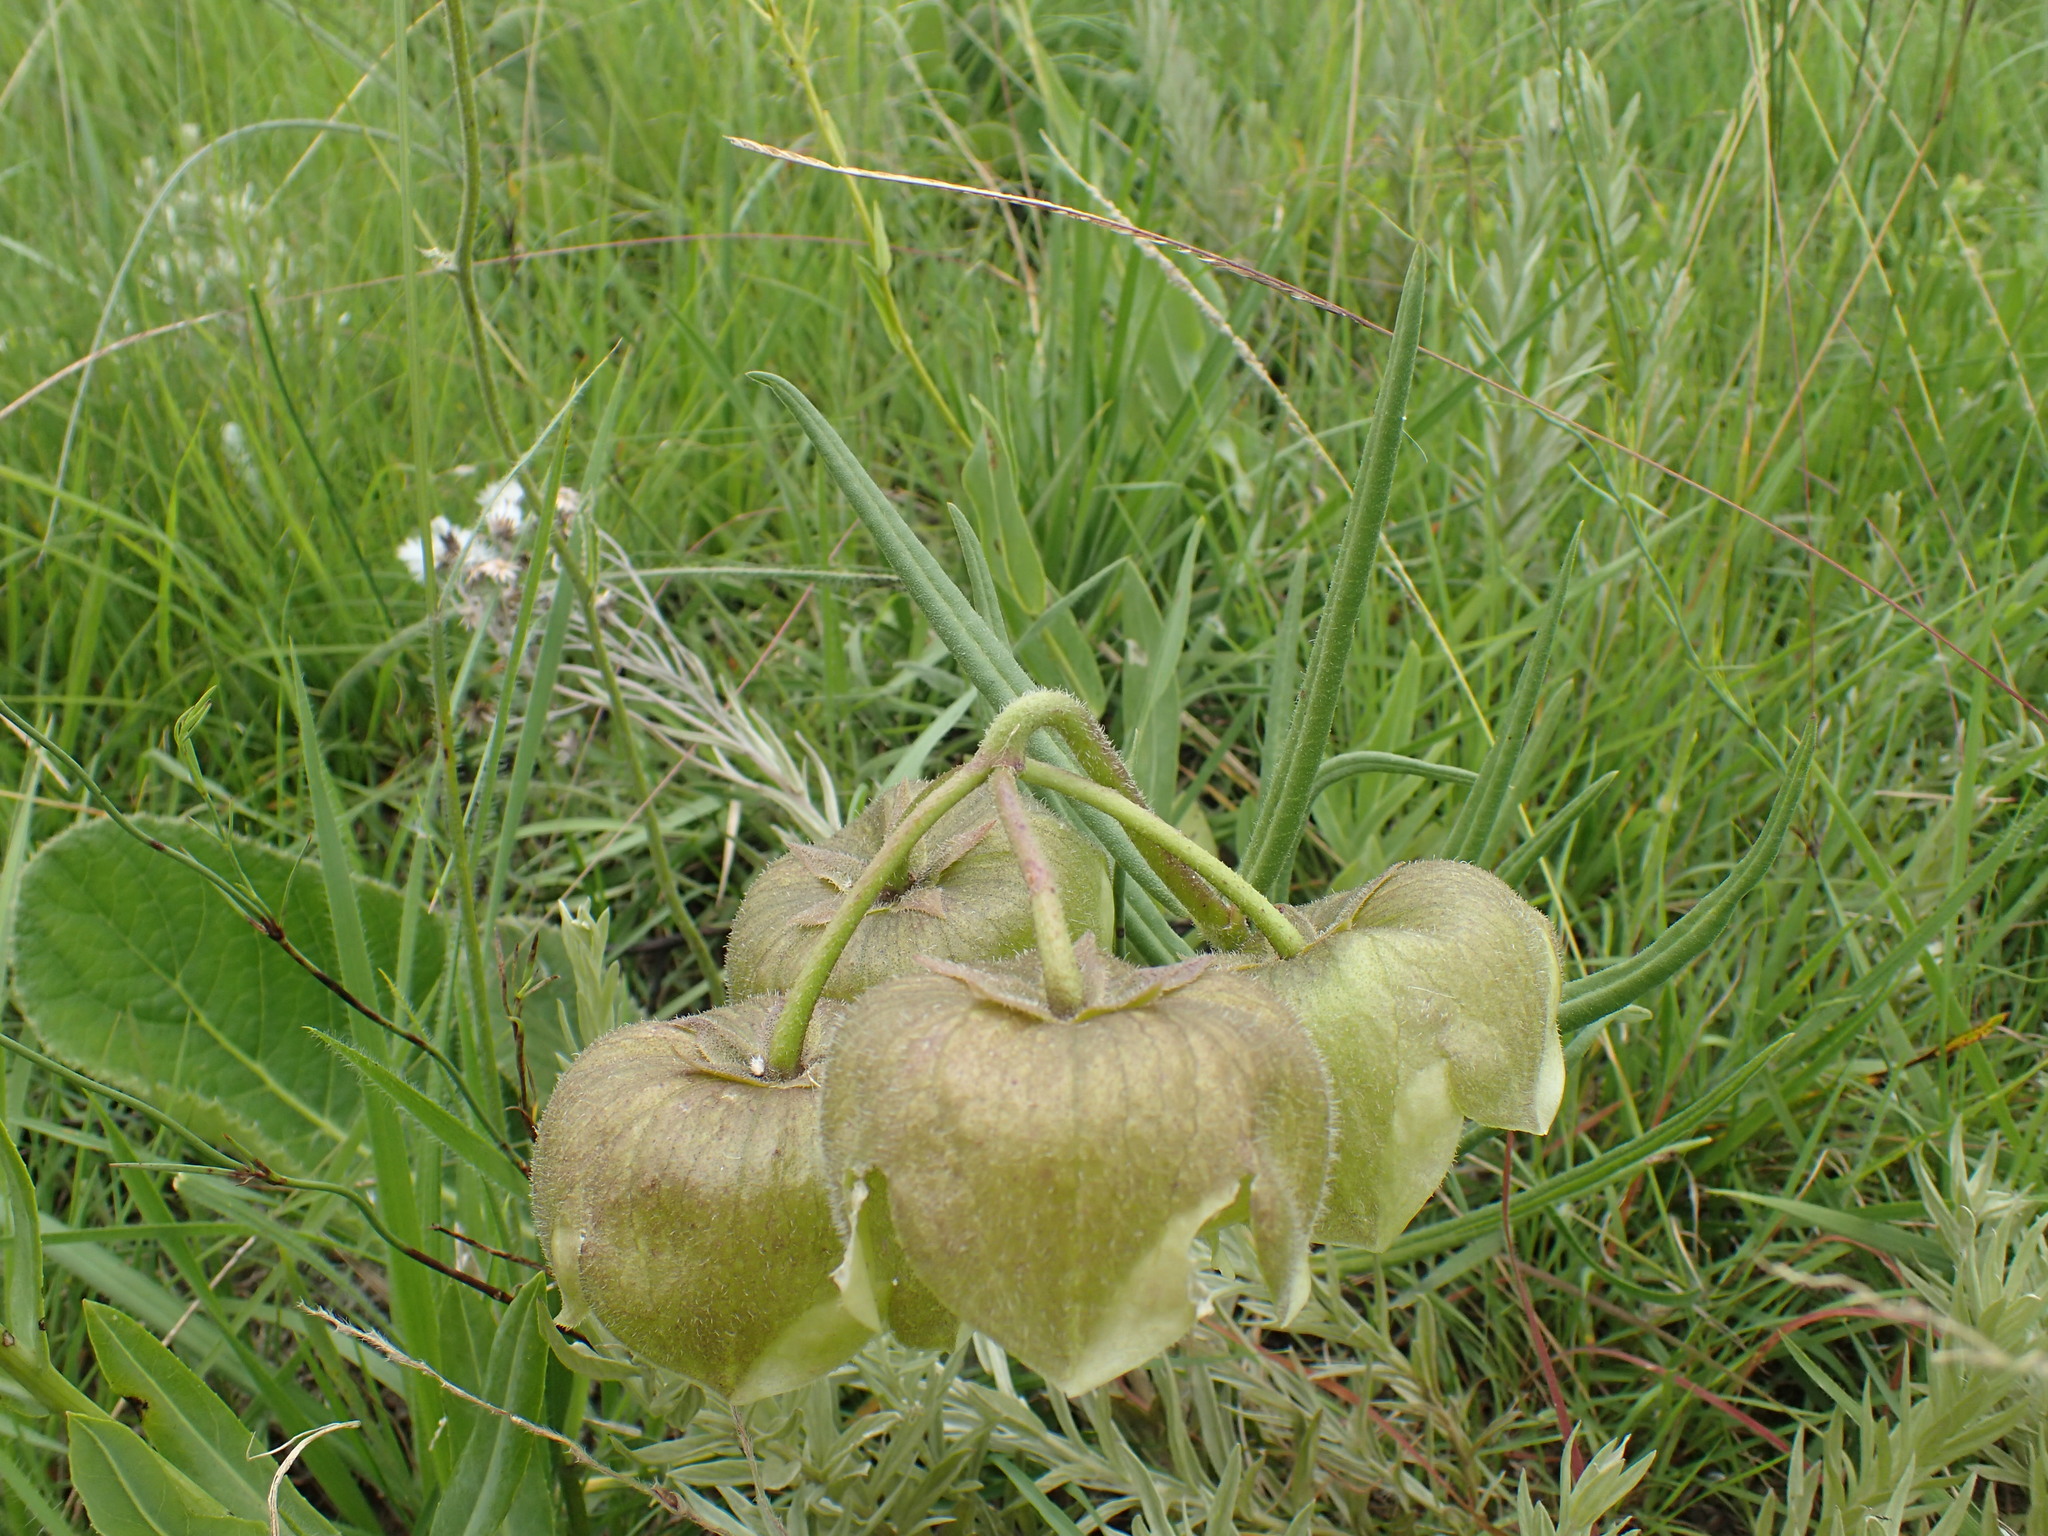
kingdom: Plantae
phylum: Tracheophyta
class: Magnoliopsida
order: Gentianales
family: Apocynaceae
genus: Pachycarpus
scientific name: Pachycarpus campanulatus
